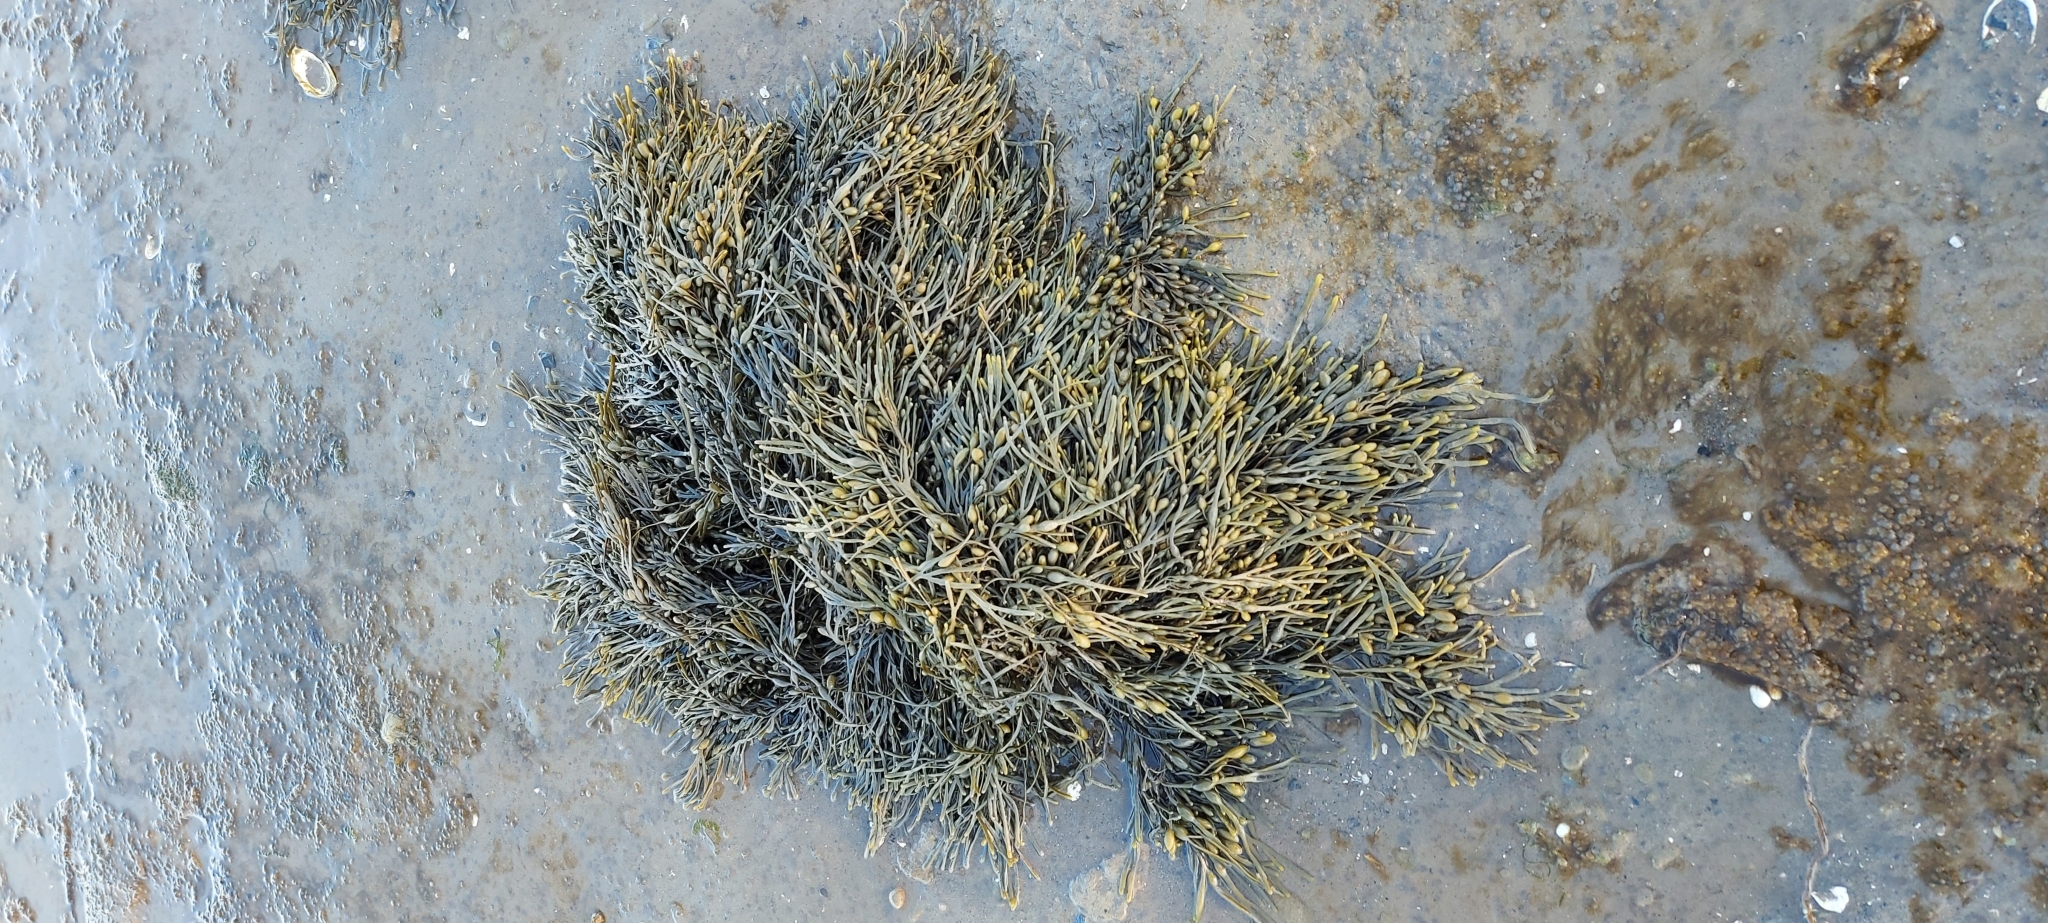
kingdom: Chromista
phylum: Ochrophyta
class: Phaeophyceae
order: Fucales
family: Fucaceae
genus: Ascophyllum
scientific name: Ascophyllum nodosum
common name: Knotted wrack
